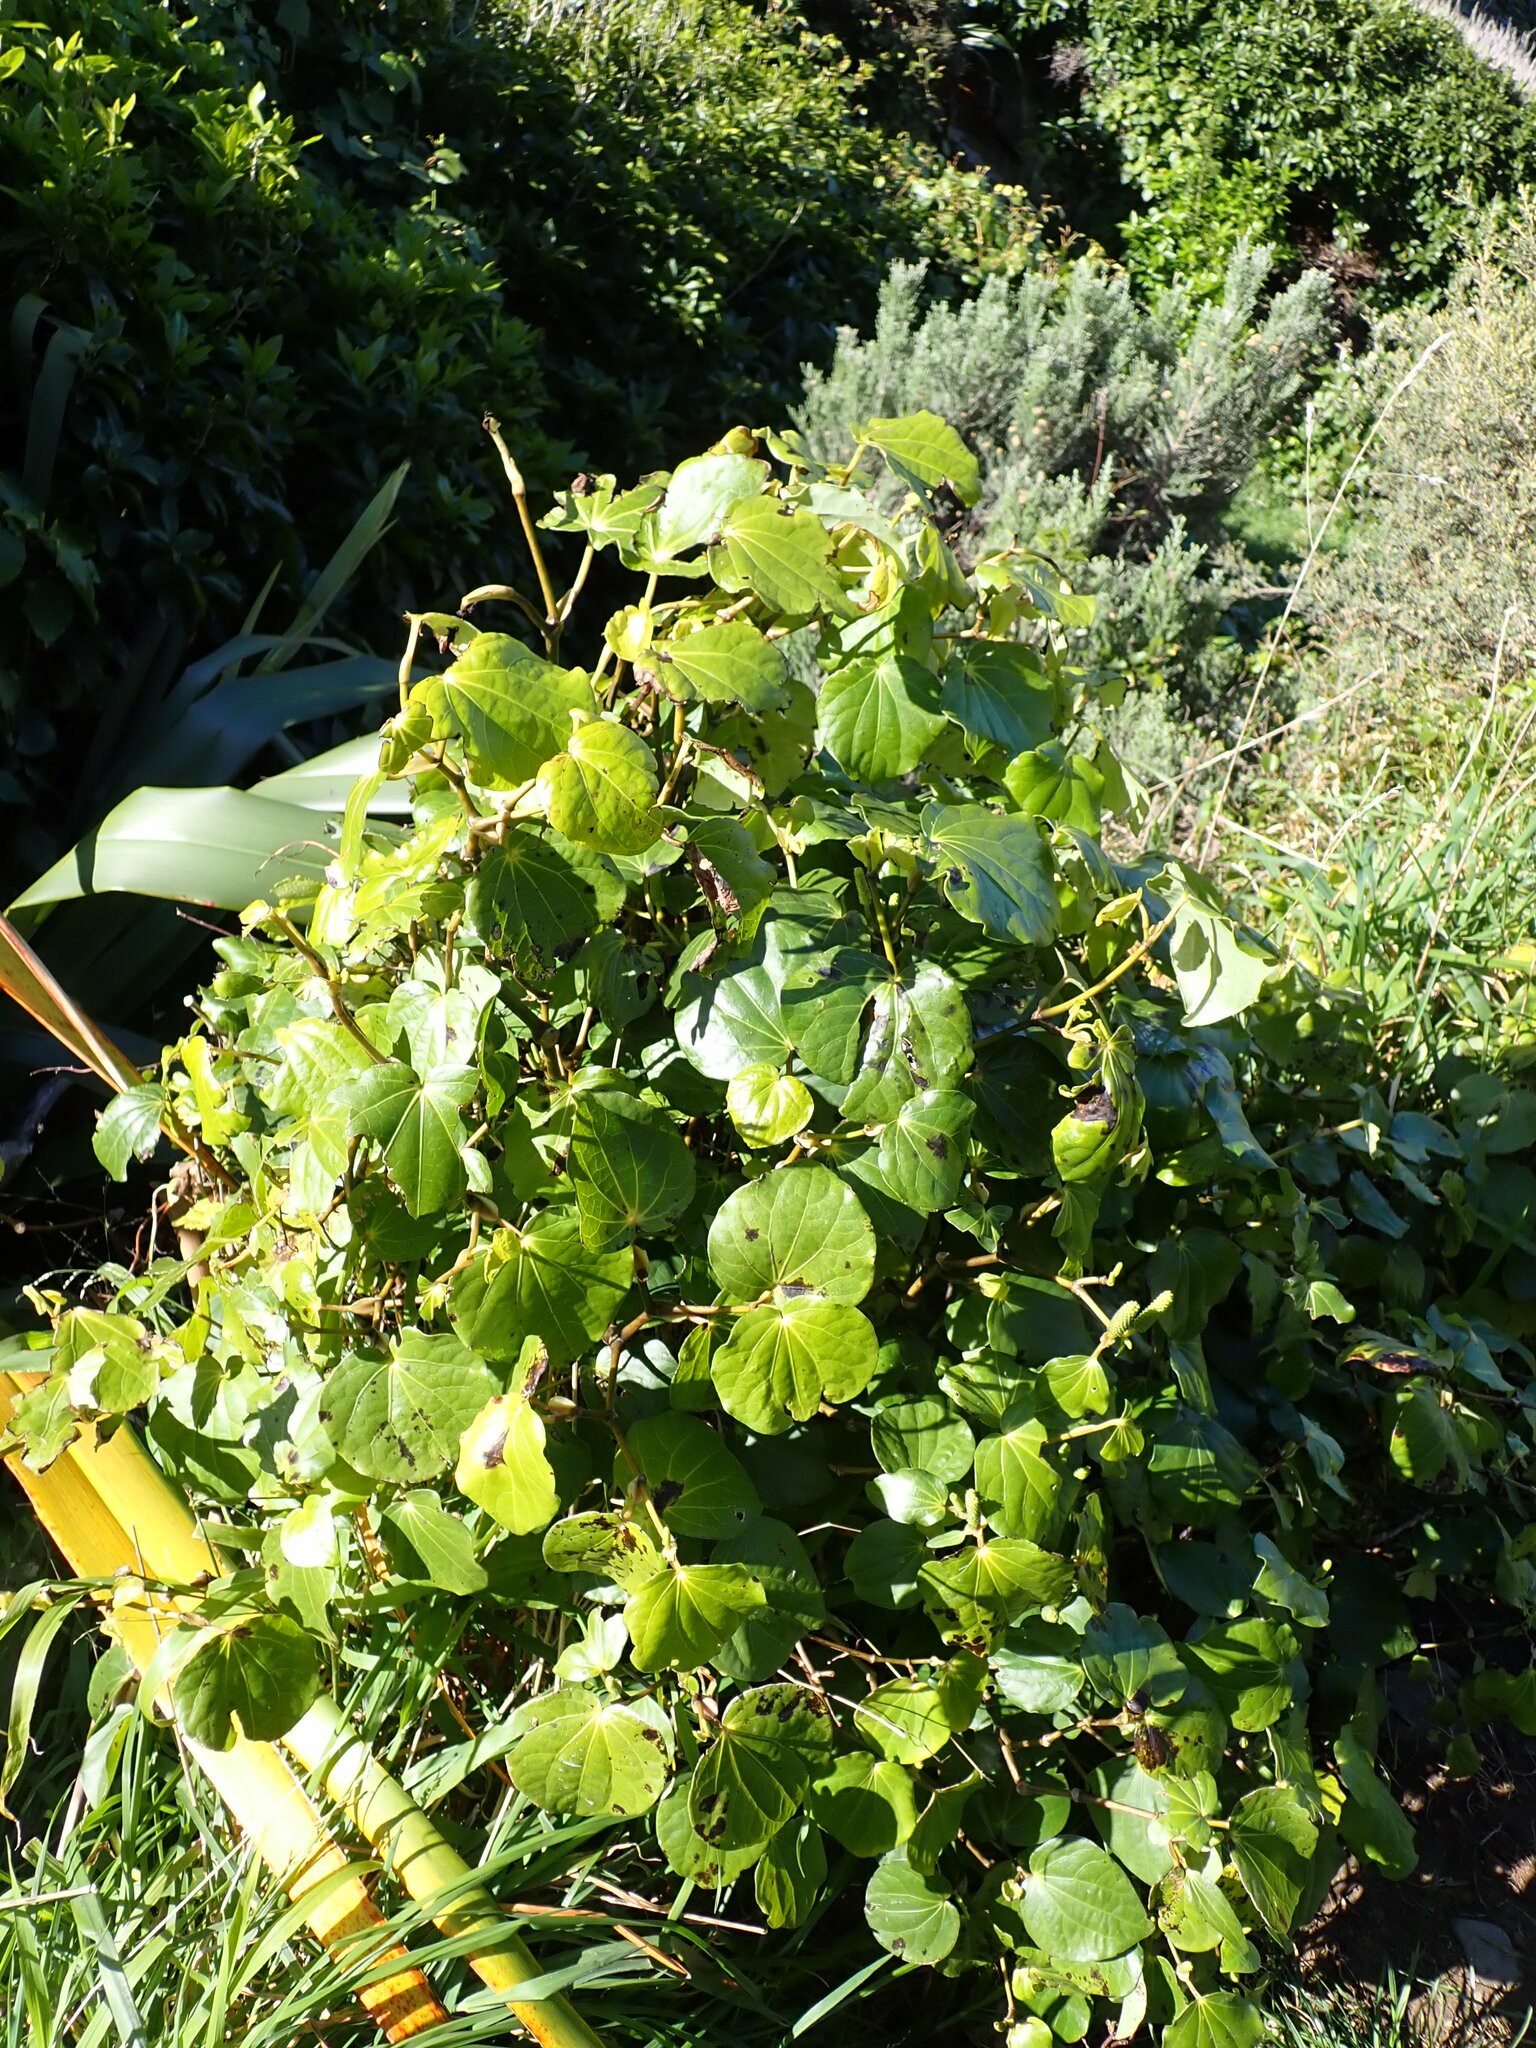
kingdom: Plantae
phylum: Tracheophyta
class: Magnoliopsida
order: Piperales
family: Piperaceae
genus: Macropiper
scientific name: Macropiper excelsum
